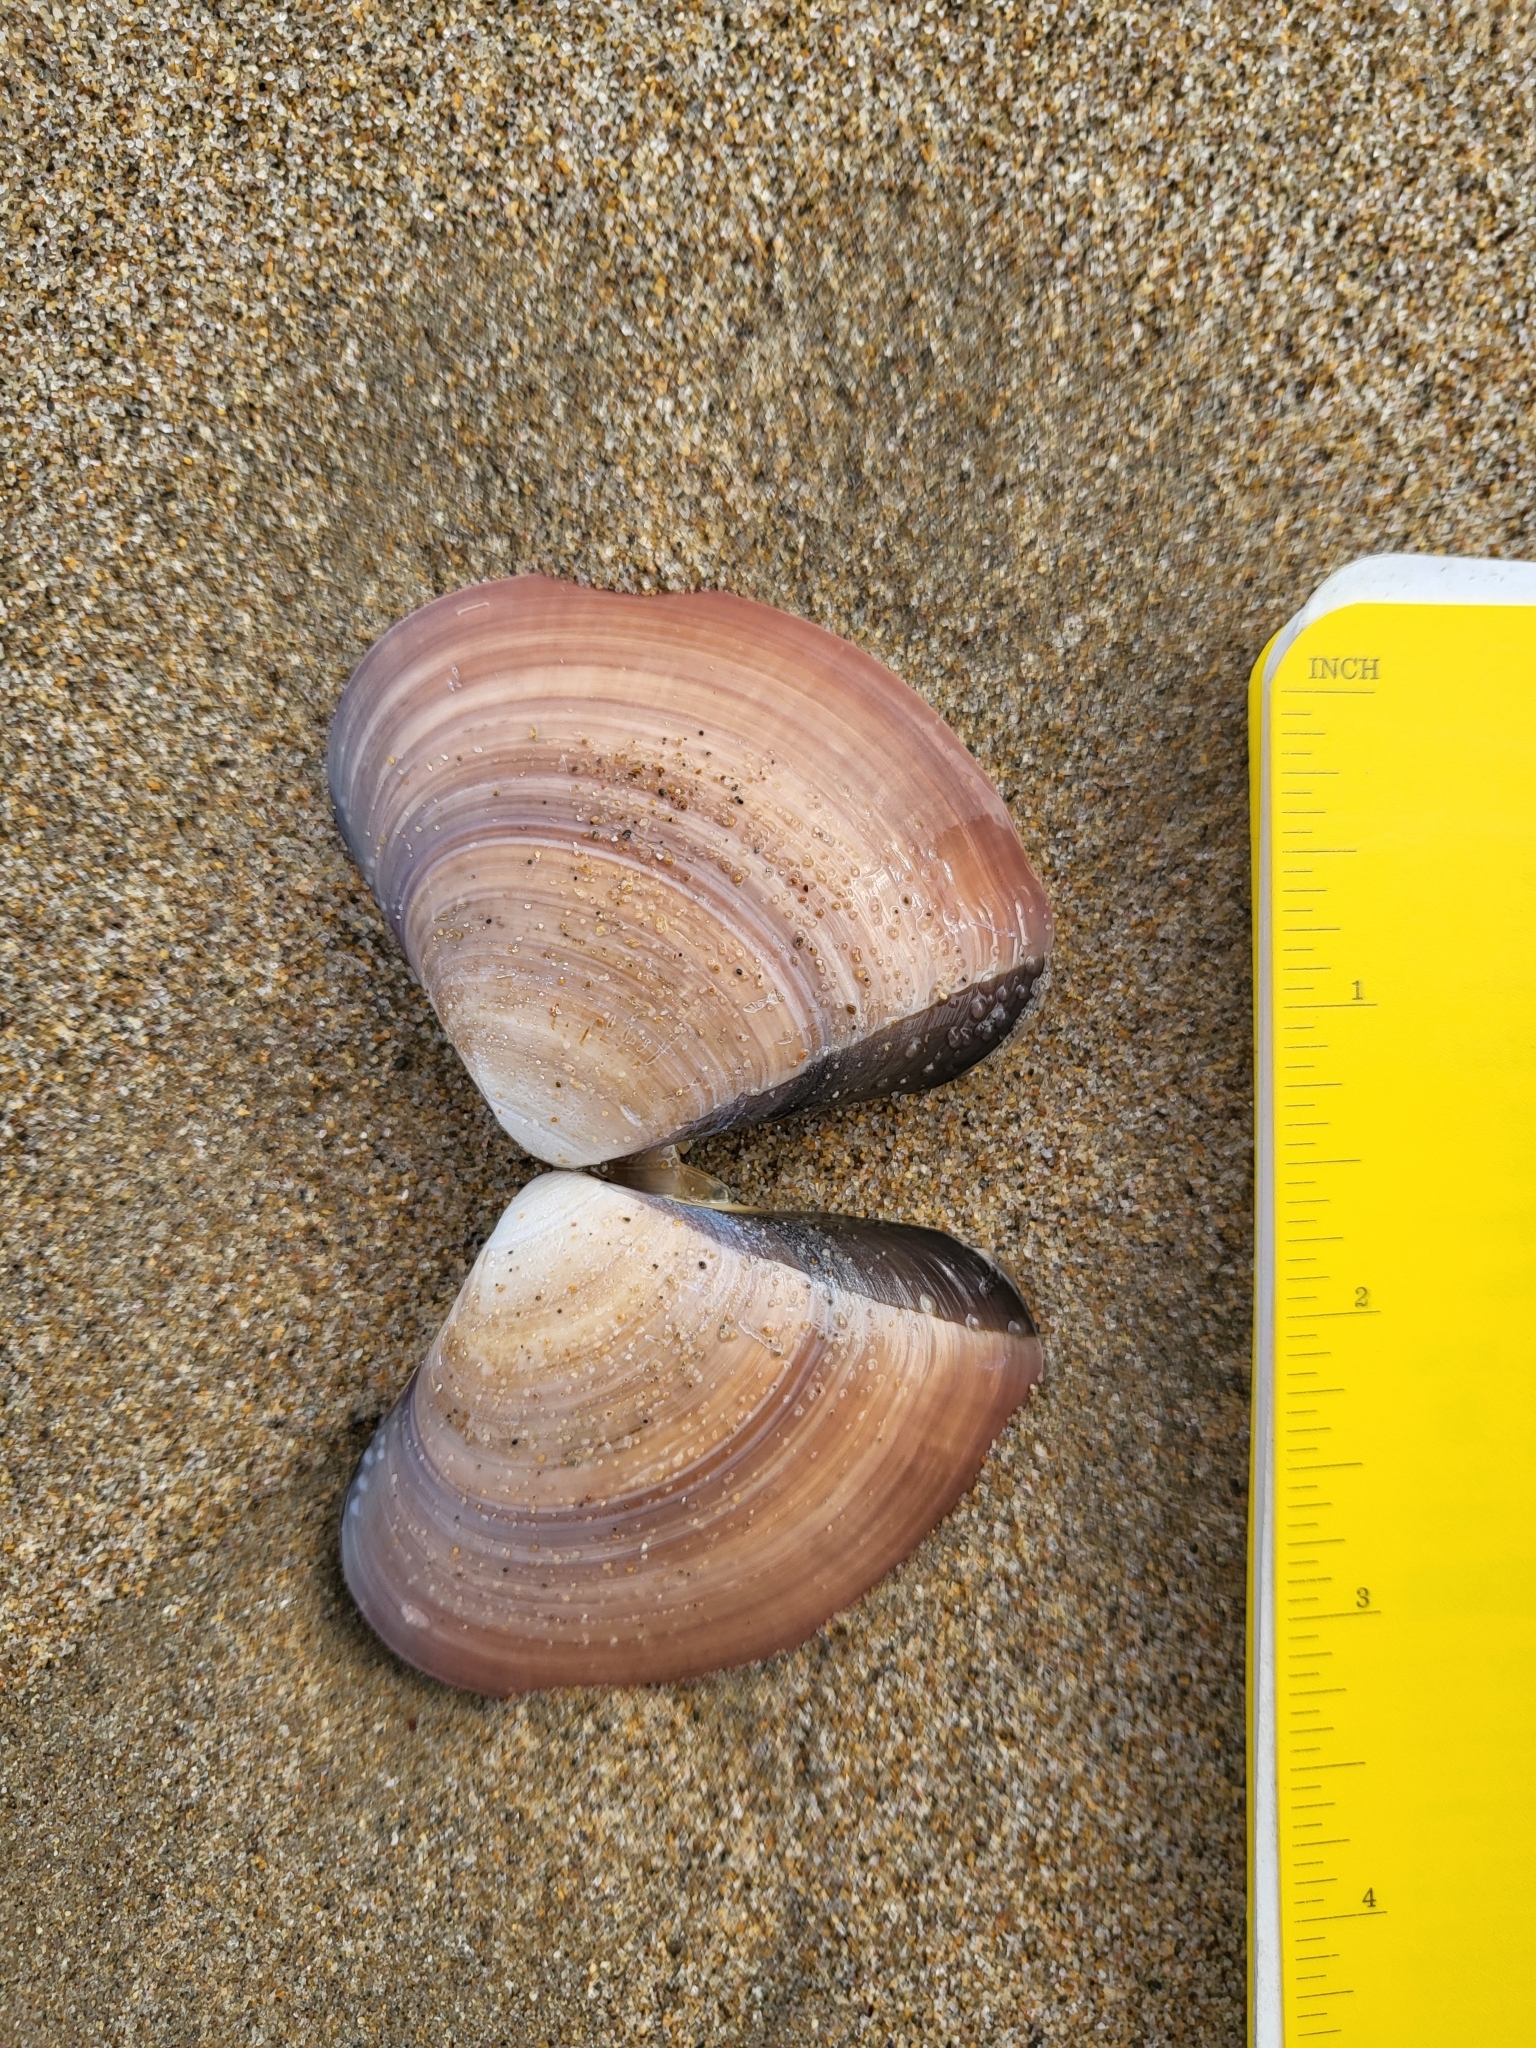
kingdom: Animalia
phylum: Mollusca
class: Bivalvia
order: Venerida
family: Veneridae
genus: Tivela
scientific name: Tivela stultorum
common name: Pismo clam
